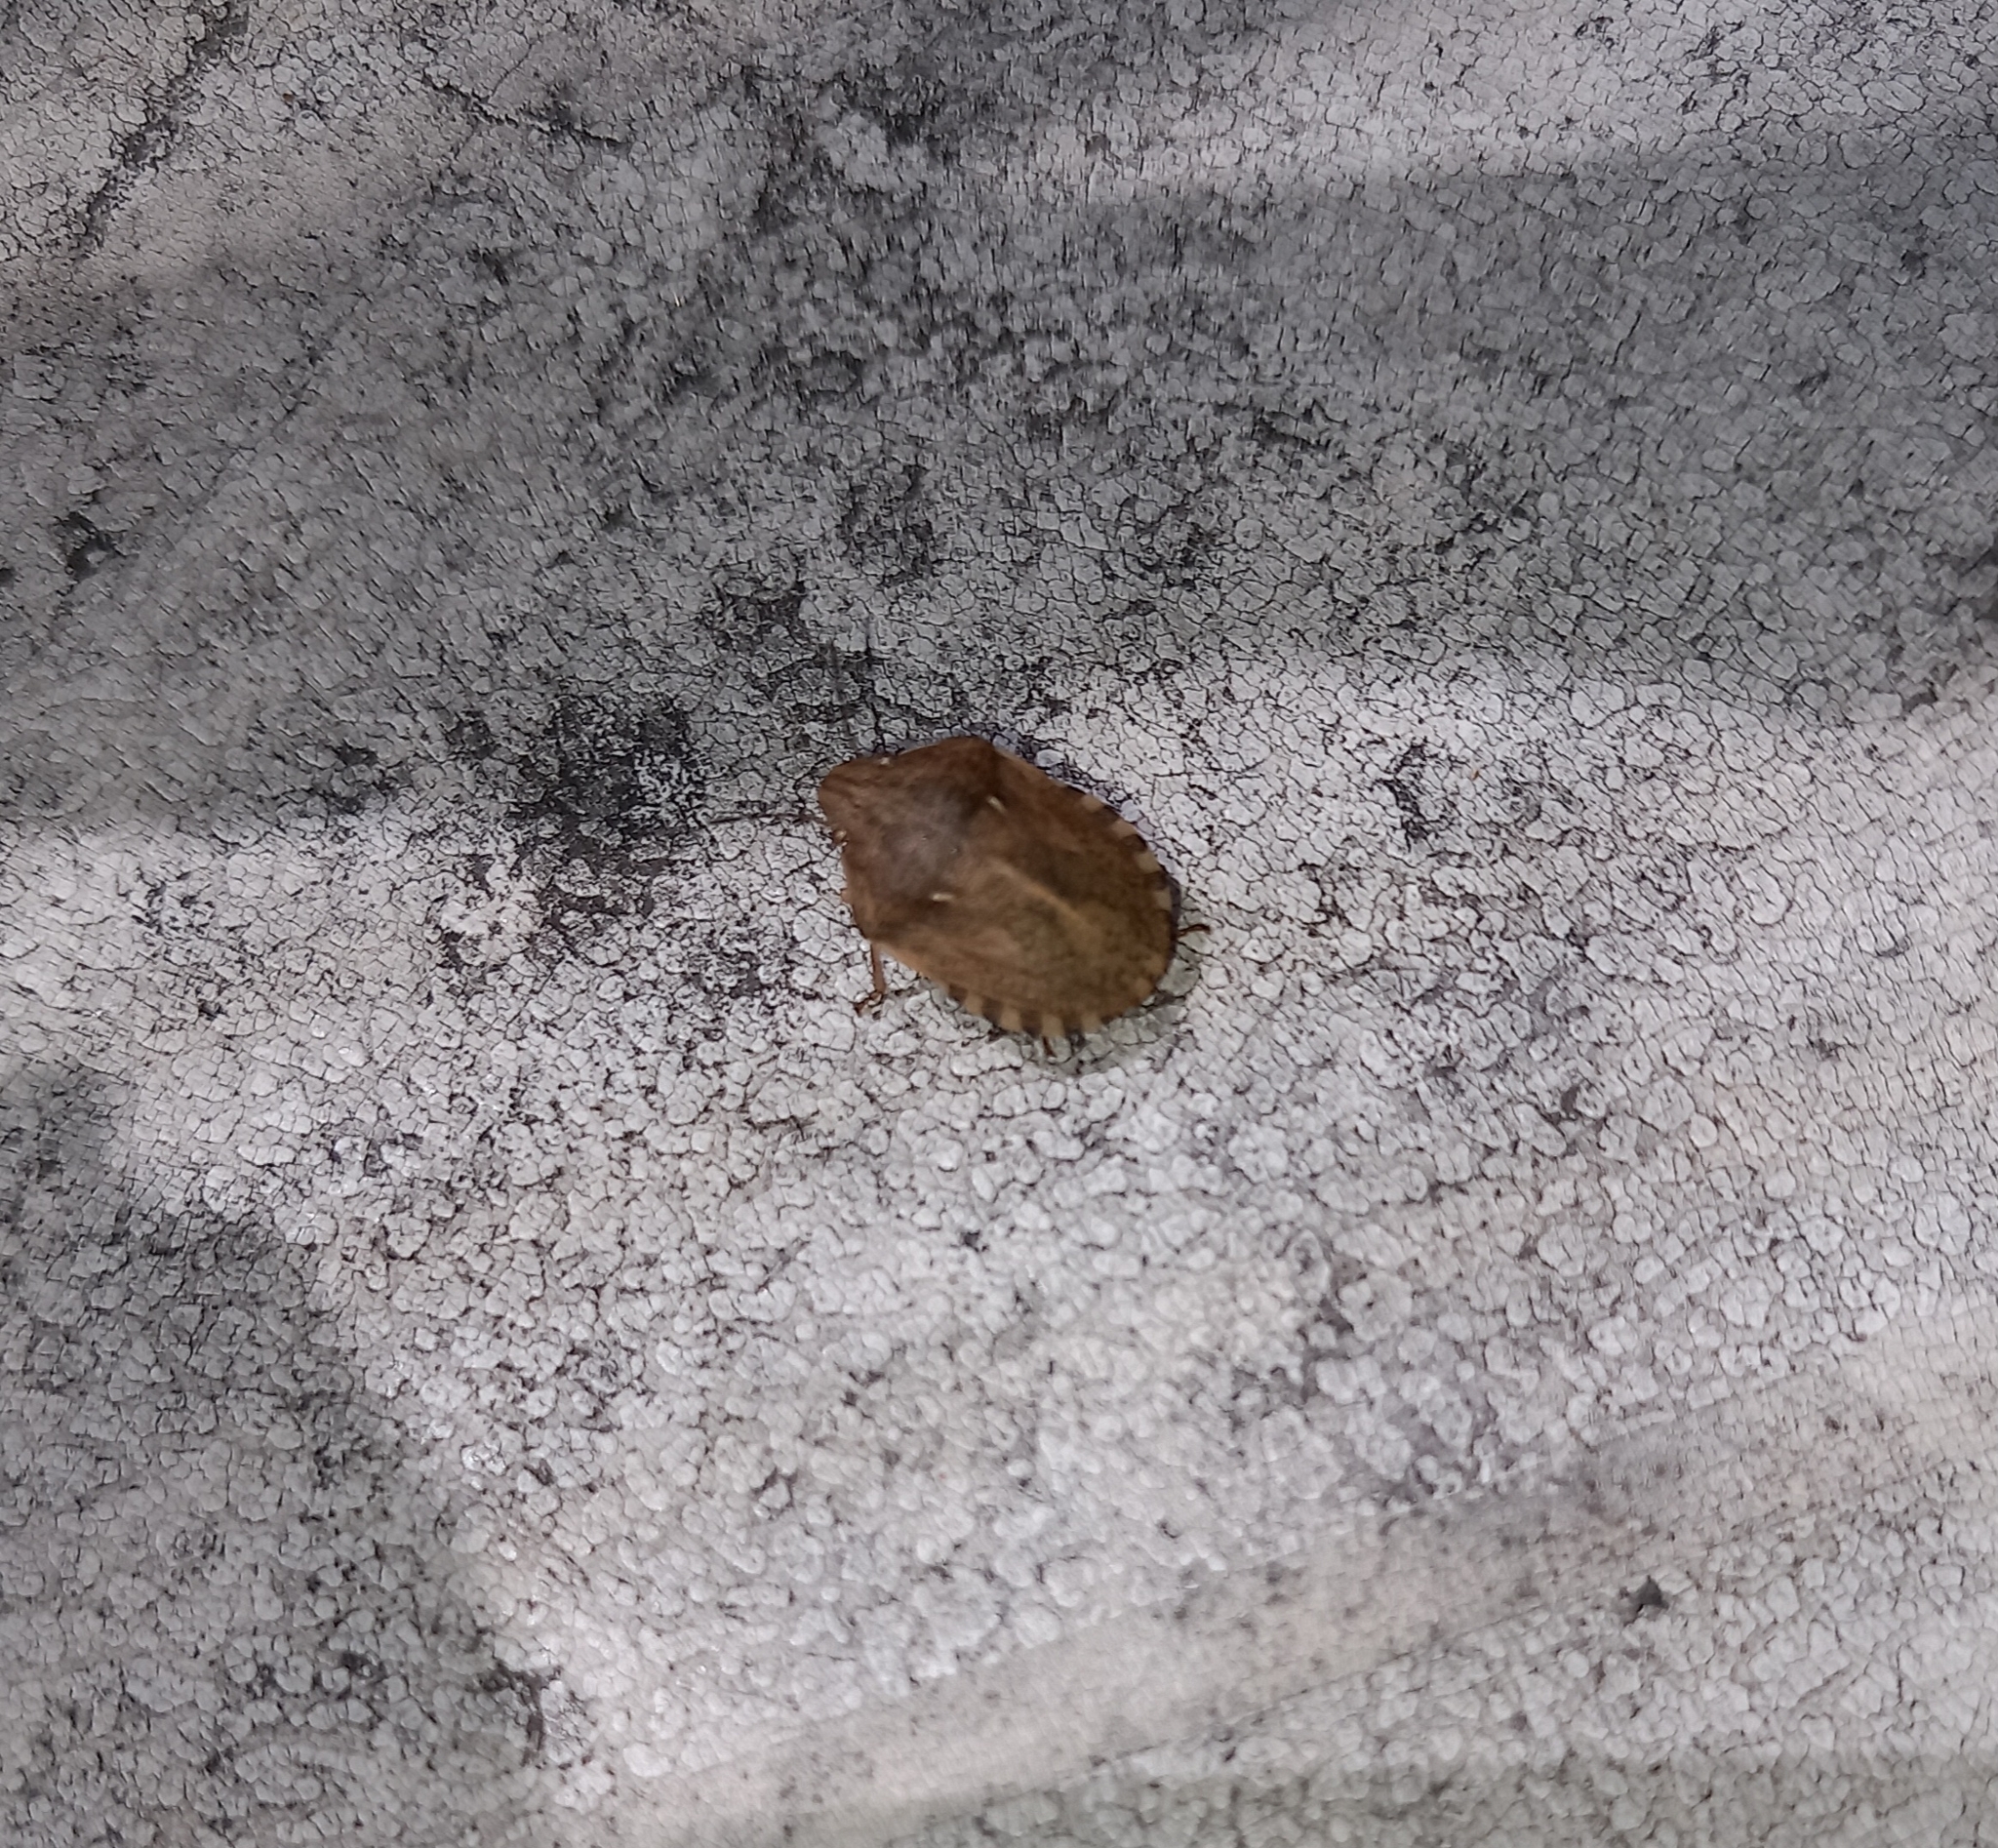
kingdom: Animalia
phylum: Arthropoda
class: Insecta
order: Hemiptera
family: Scutelleridae
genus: Eurygaster
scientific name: Eurygaster maura
